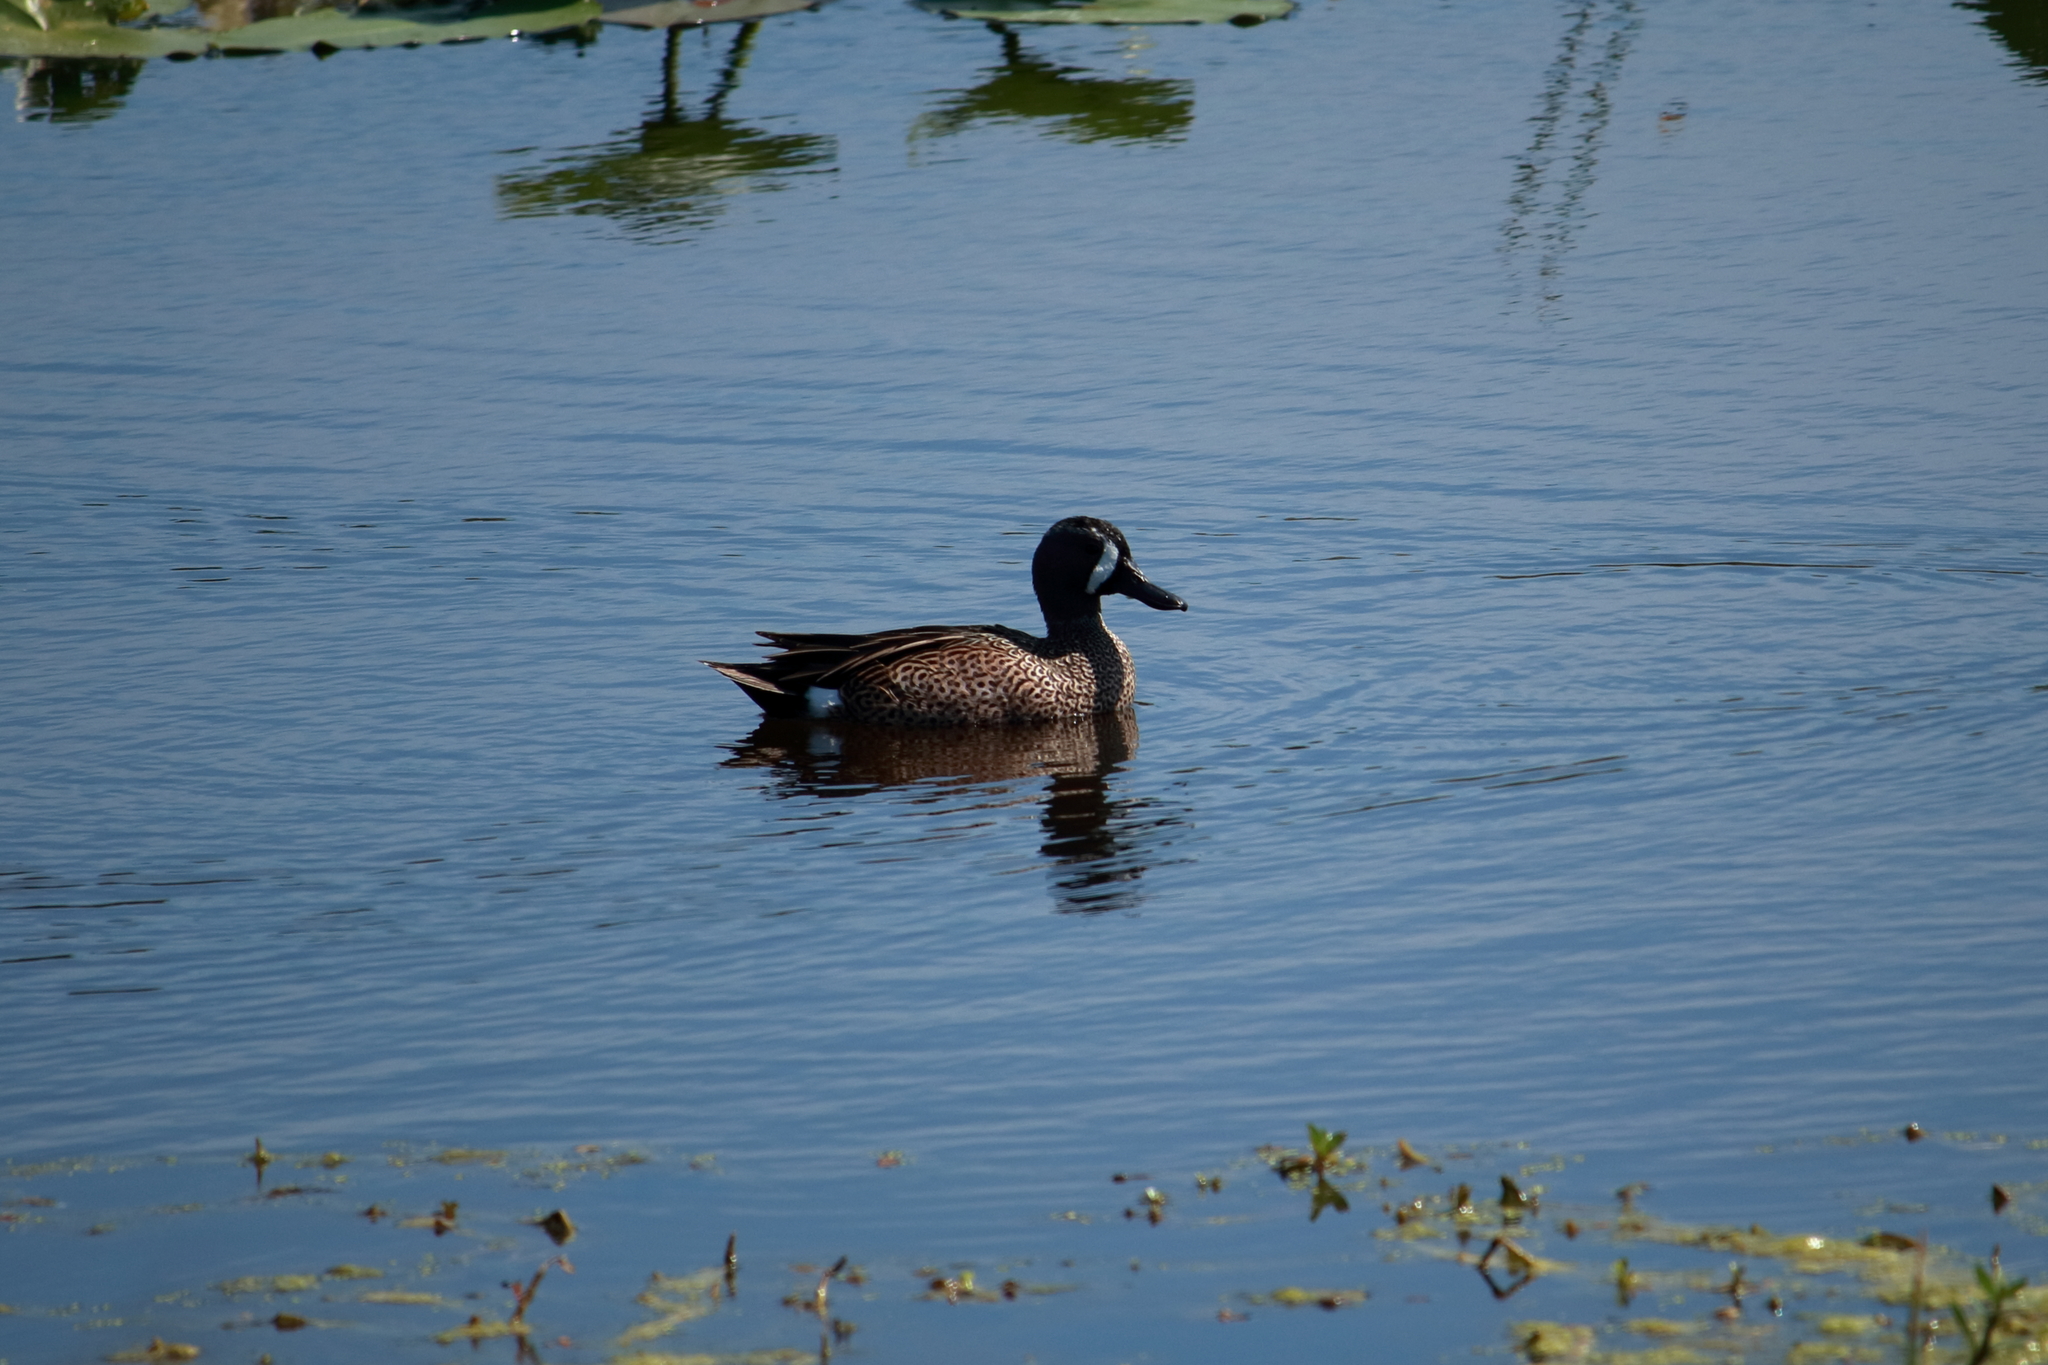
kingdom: Animalia
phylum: Chordata
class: Aves
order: Anseriformes
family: Anatidae
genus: Spatula
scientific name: Spatula discors
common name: Blue-winged teal
